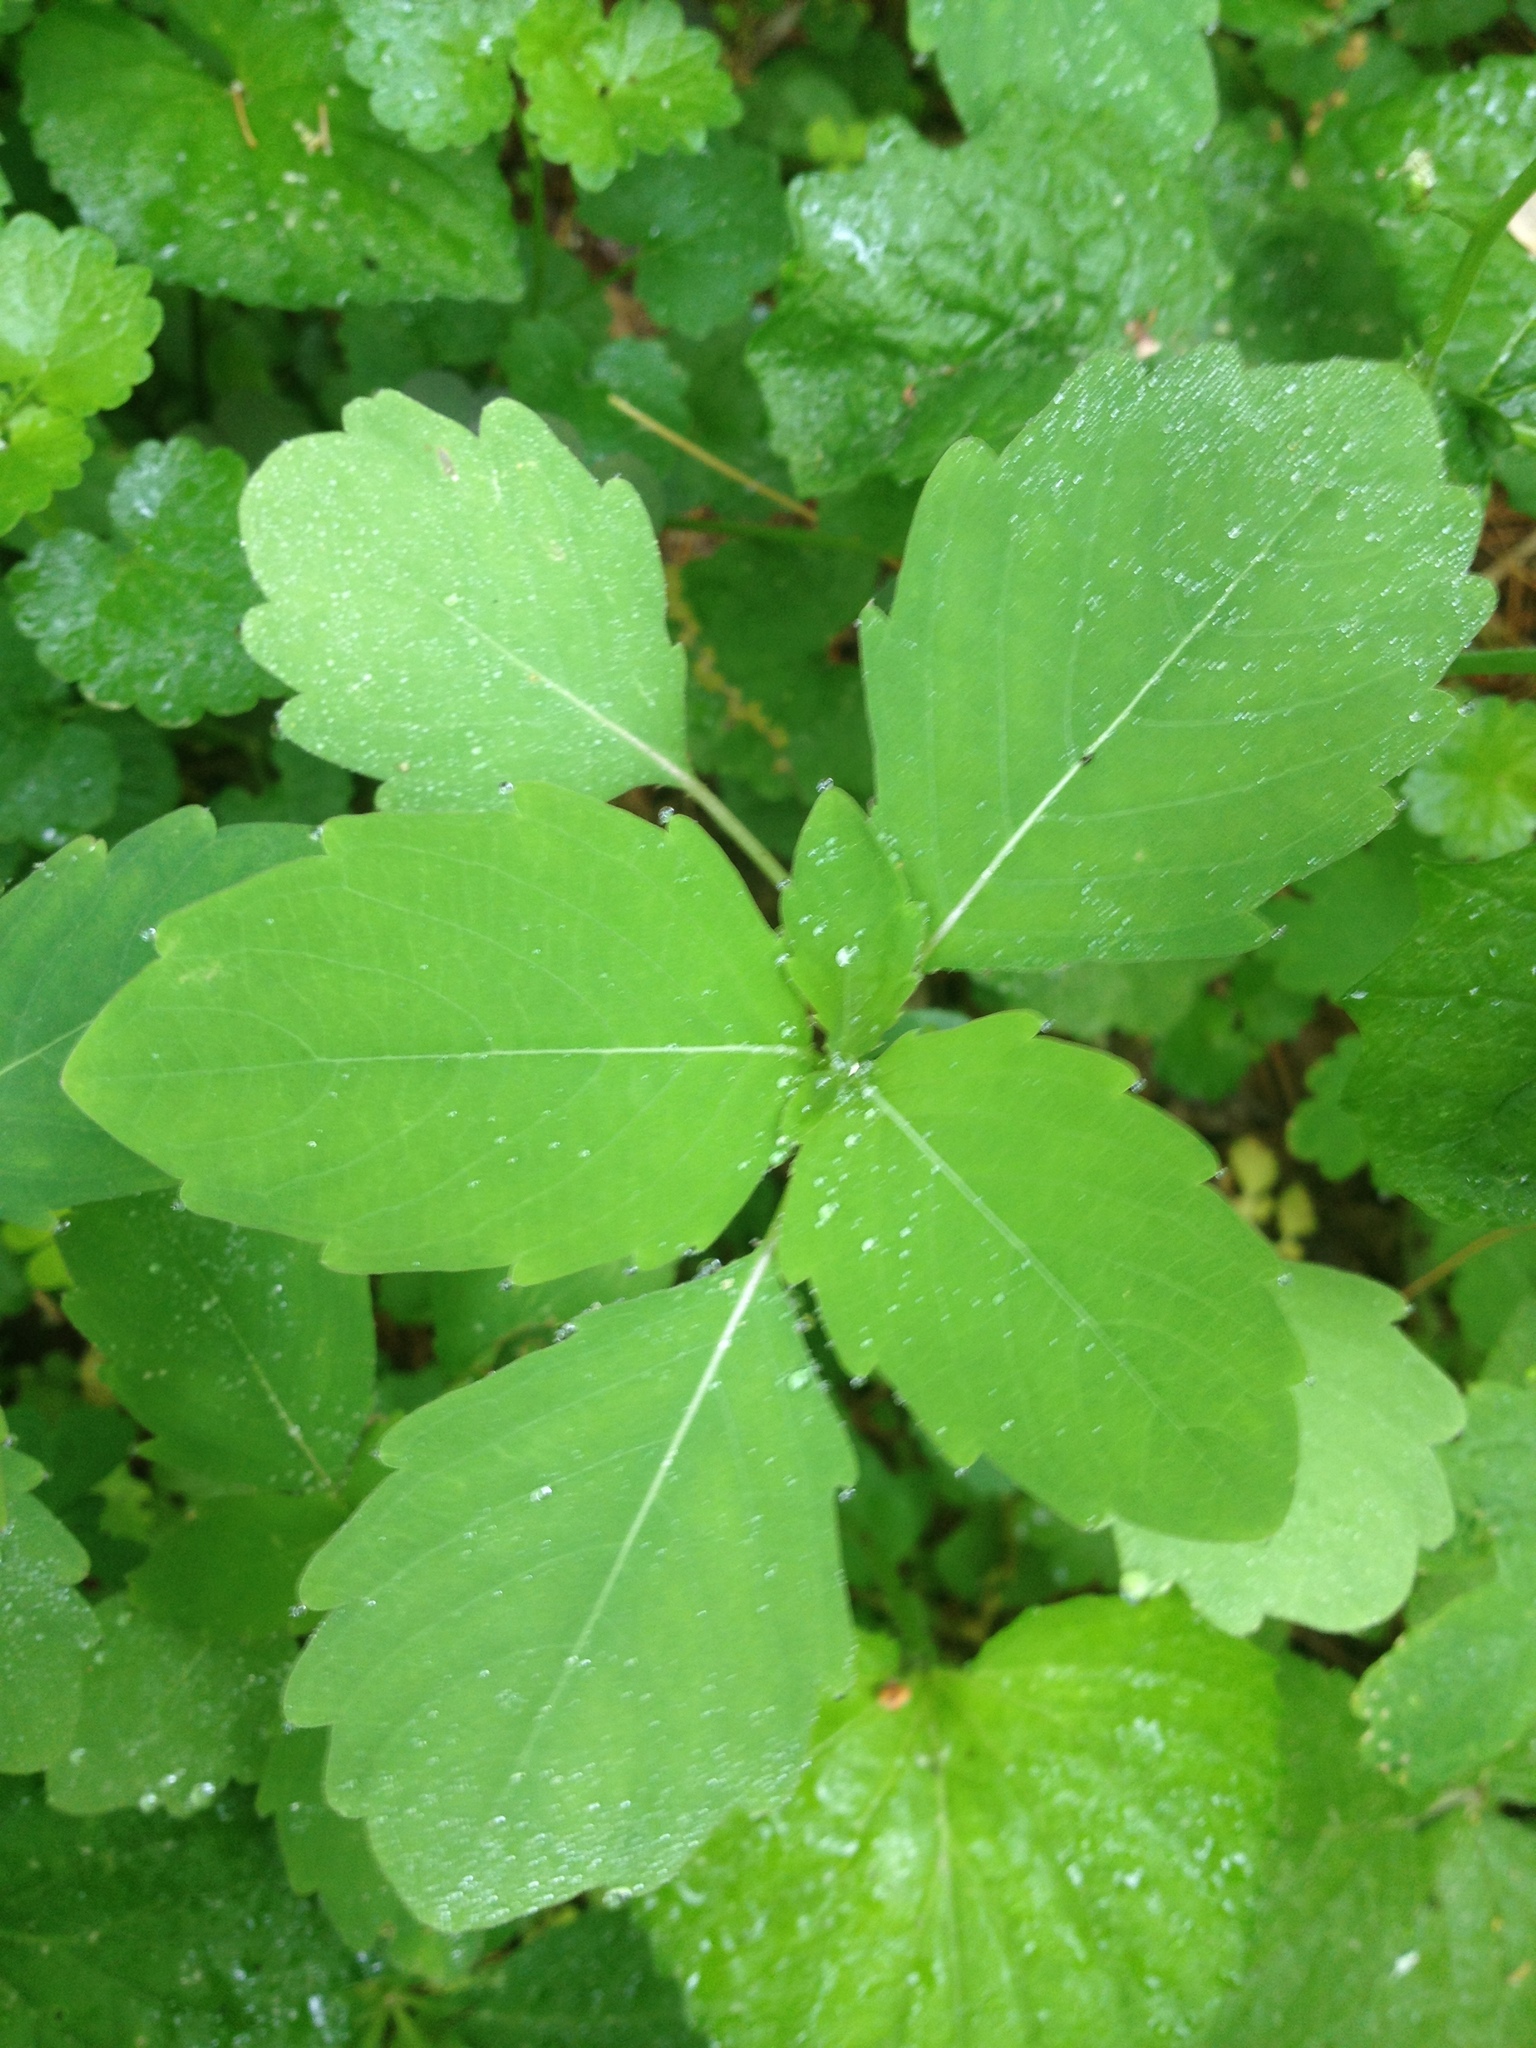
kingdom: Plantae
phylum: Tracheophyta
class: Magnoliopsida
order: Ericales
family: Balsaminaceae
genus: Impatiens
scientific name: Impatiens capensis
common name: Orange balsam
